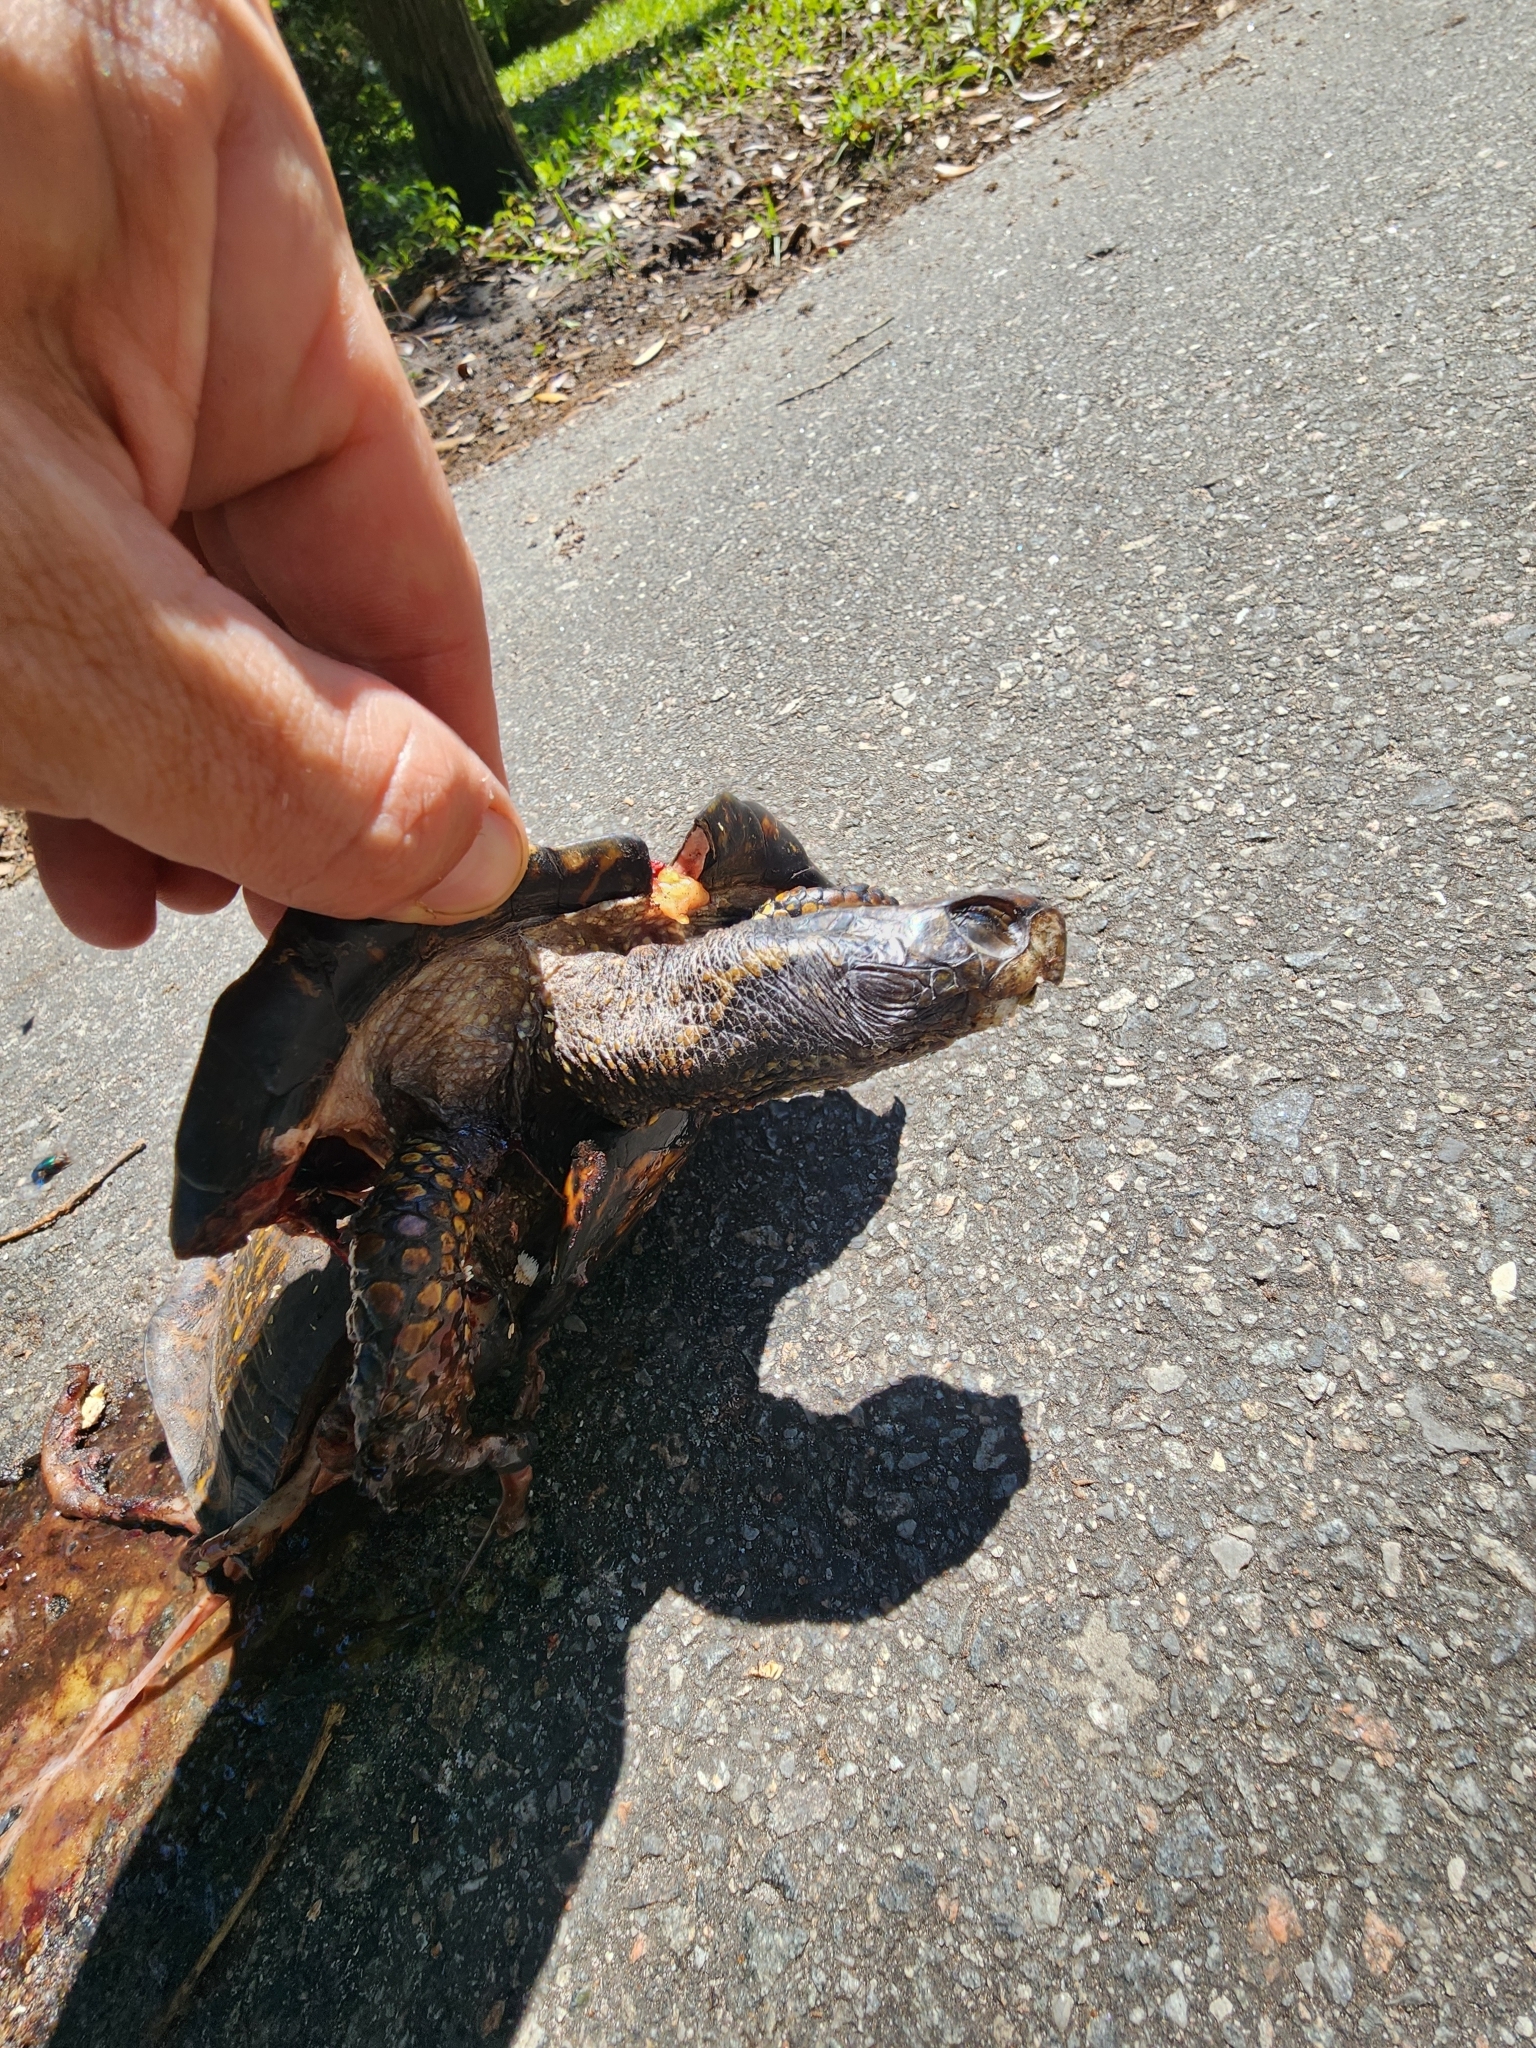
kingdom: Animalia
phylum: Chordata
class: Testudines
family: Emydidae
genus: Terrapene
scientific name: Terrapene carolina
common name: Common box turtle
